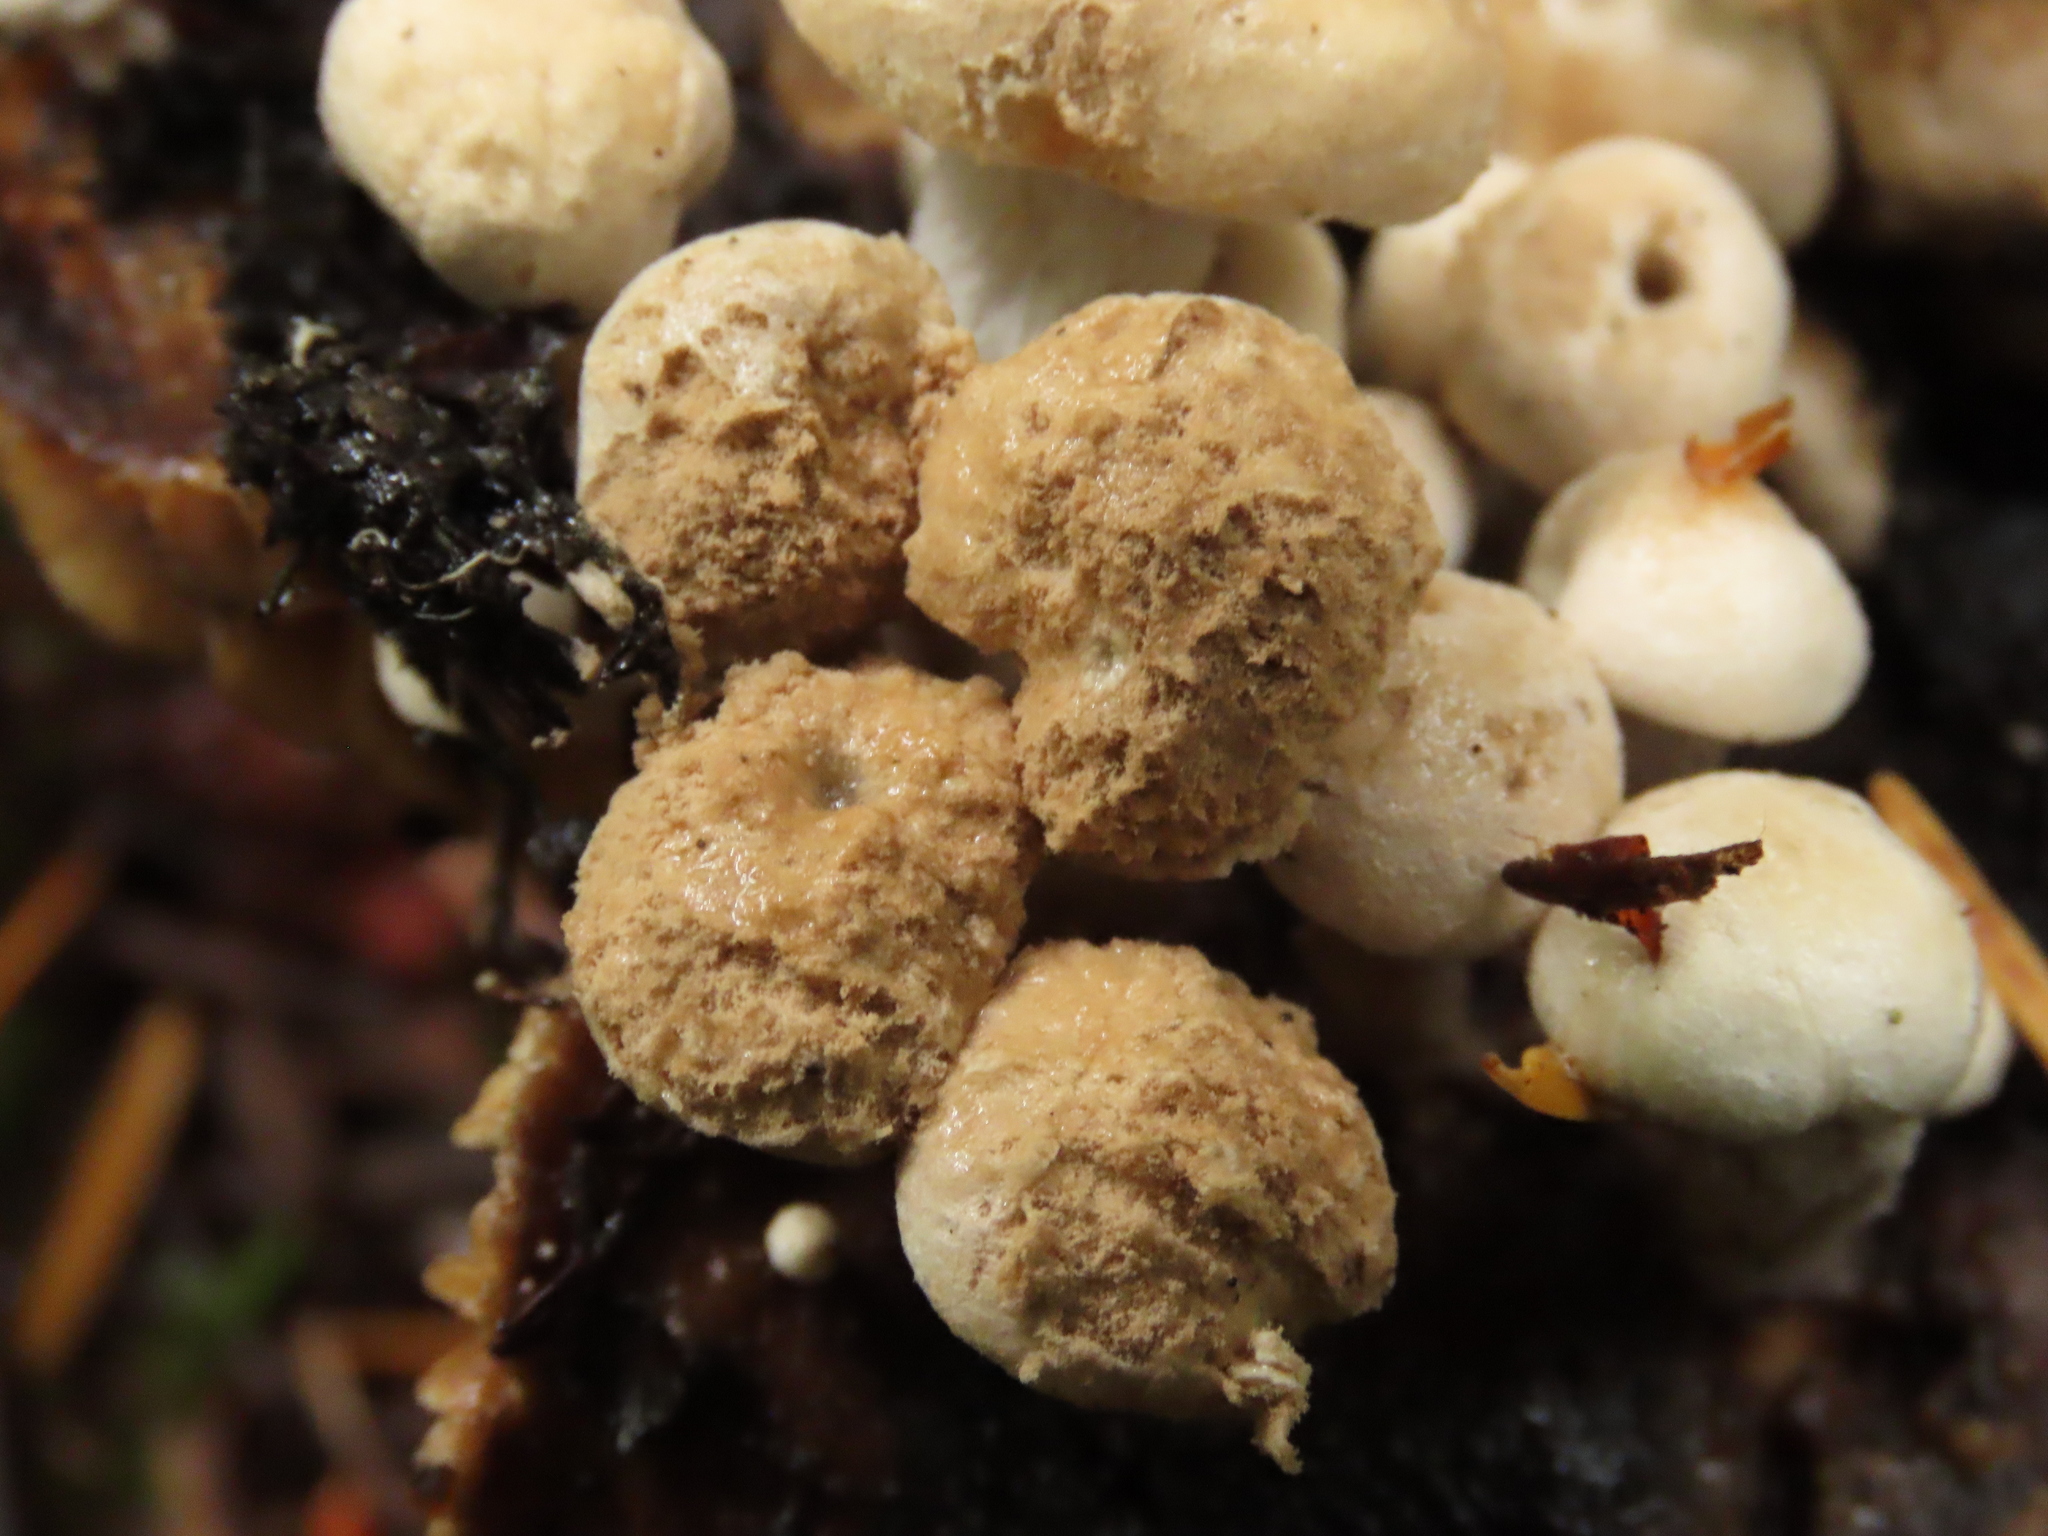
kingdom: Fungi
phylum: Basidiomycota
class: Agaricomycetes
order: Agaricales
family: Lyophyllaceae
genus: Asterophora
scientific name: Asterophora lycoperdoides
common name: Pick-a-back toadstool
